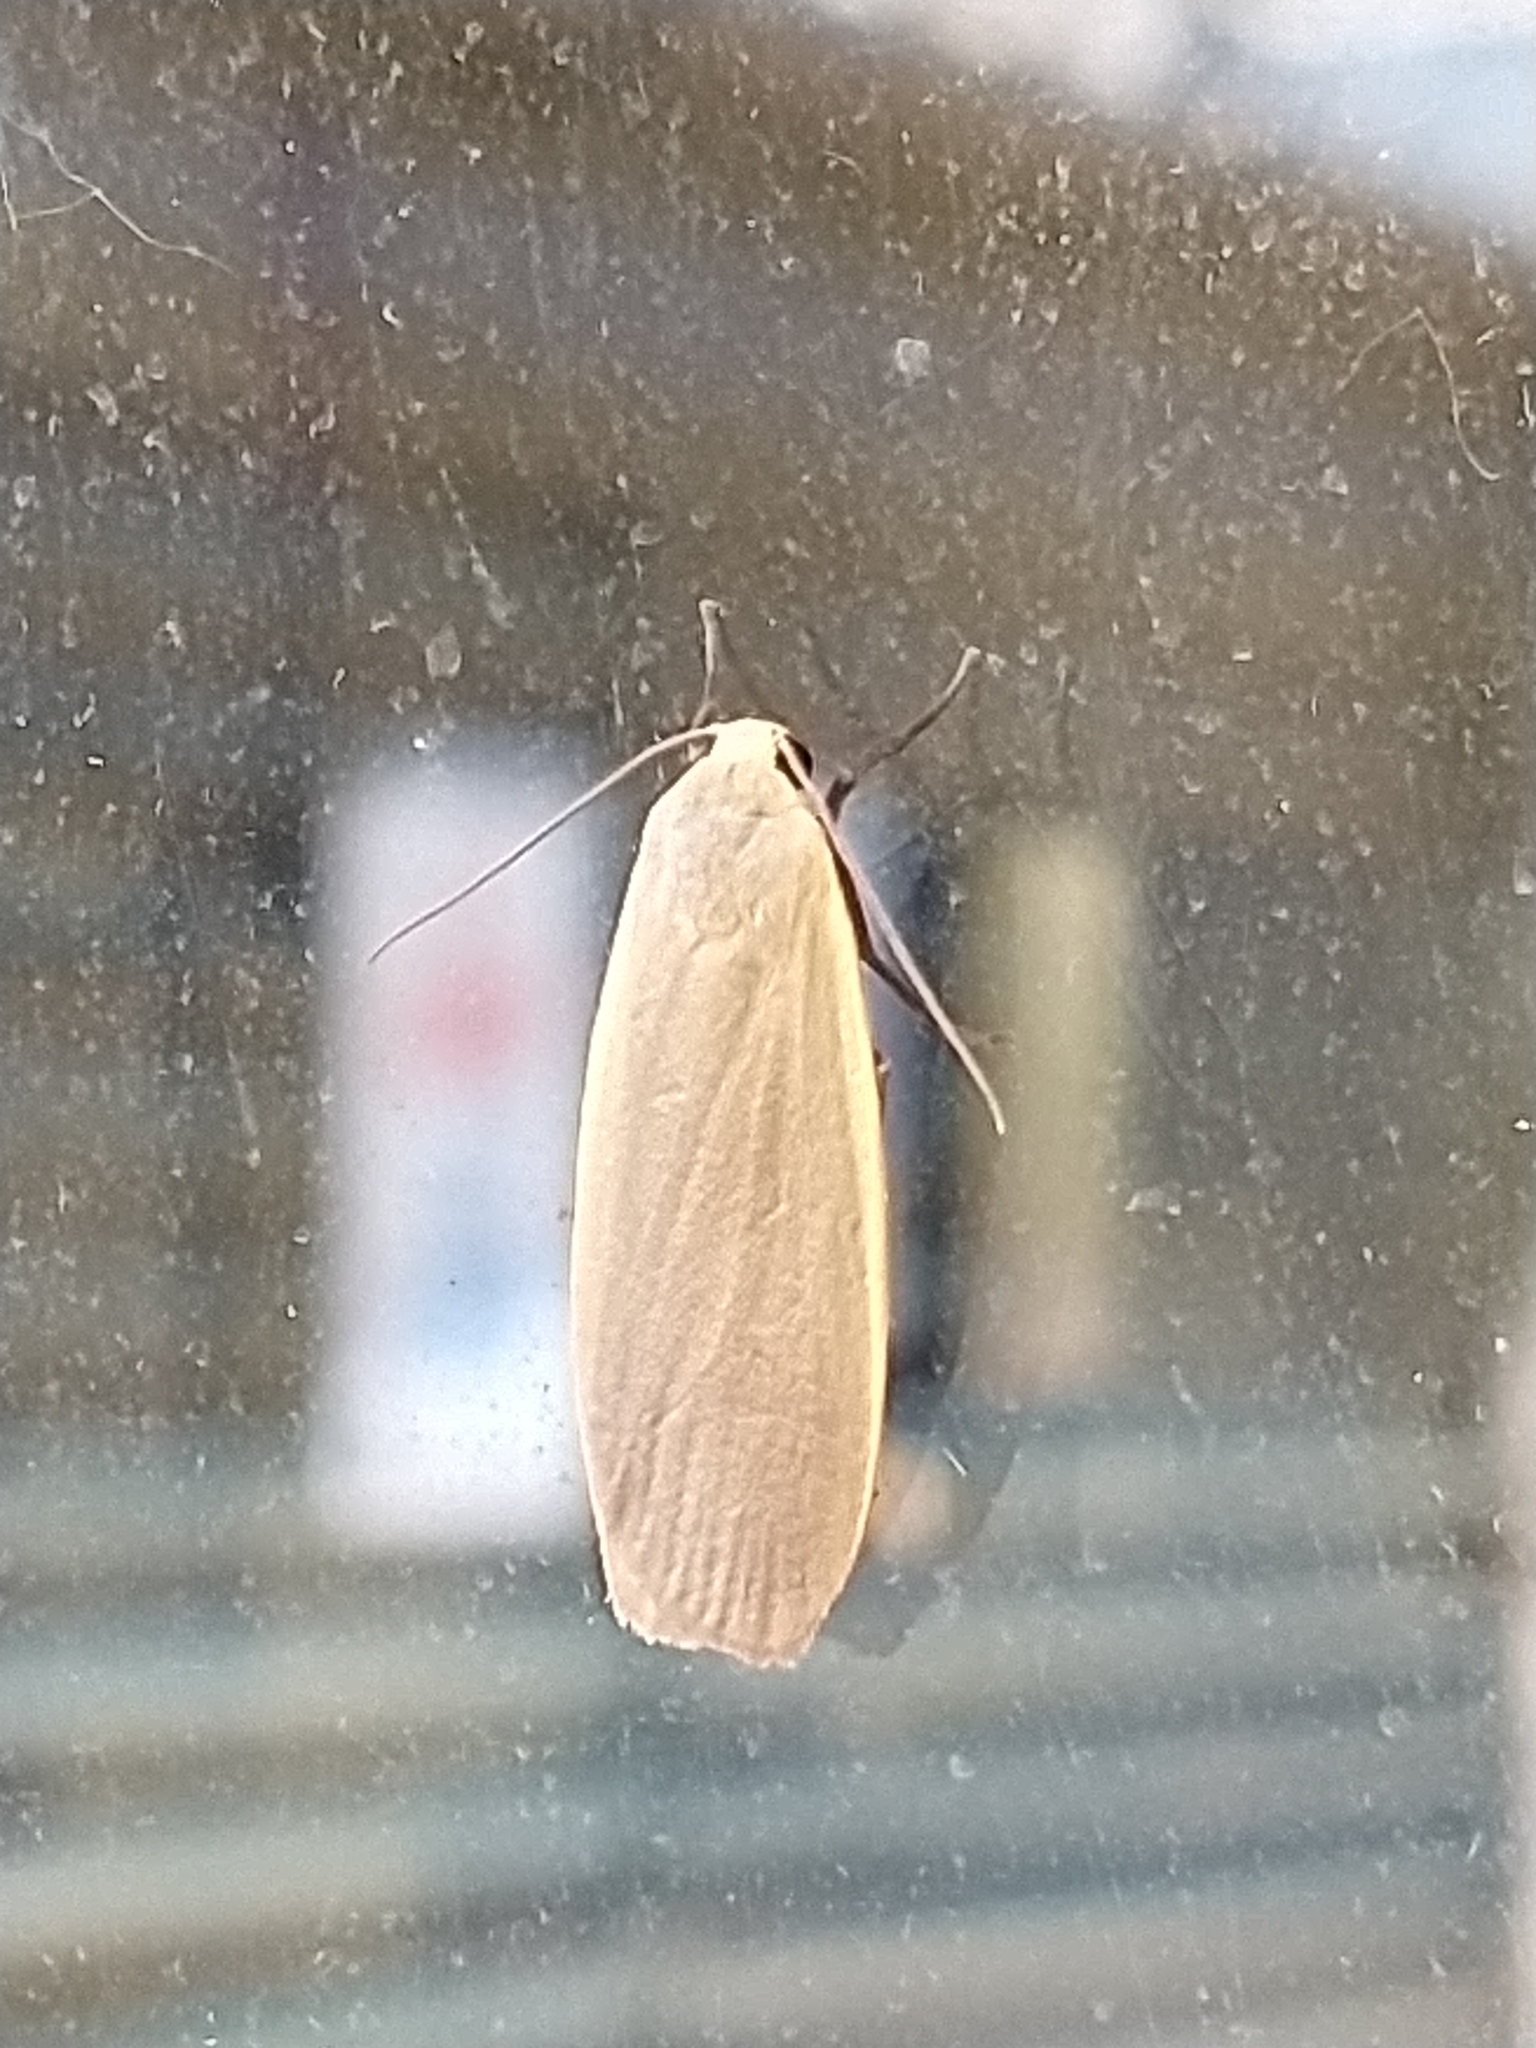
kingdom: Animalia
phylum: Arthropoda
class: Insecta
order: Lepidoptera
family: Erebidae
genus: Collita
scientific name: Collita griseola
